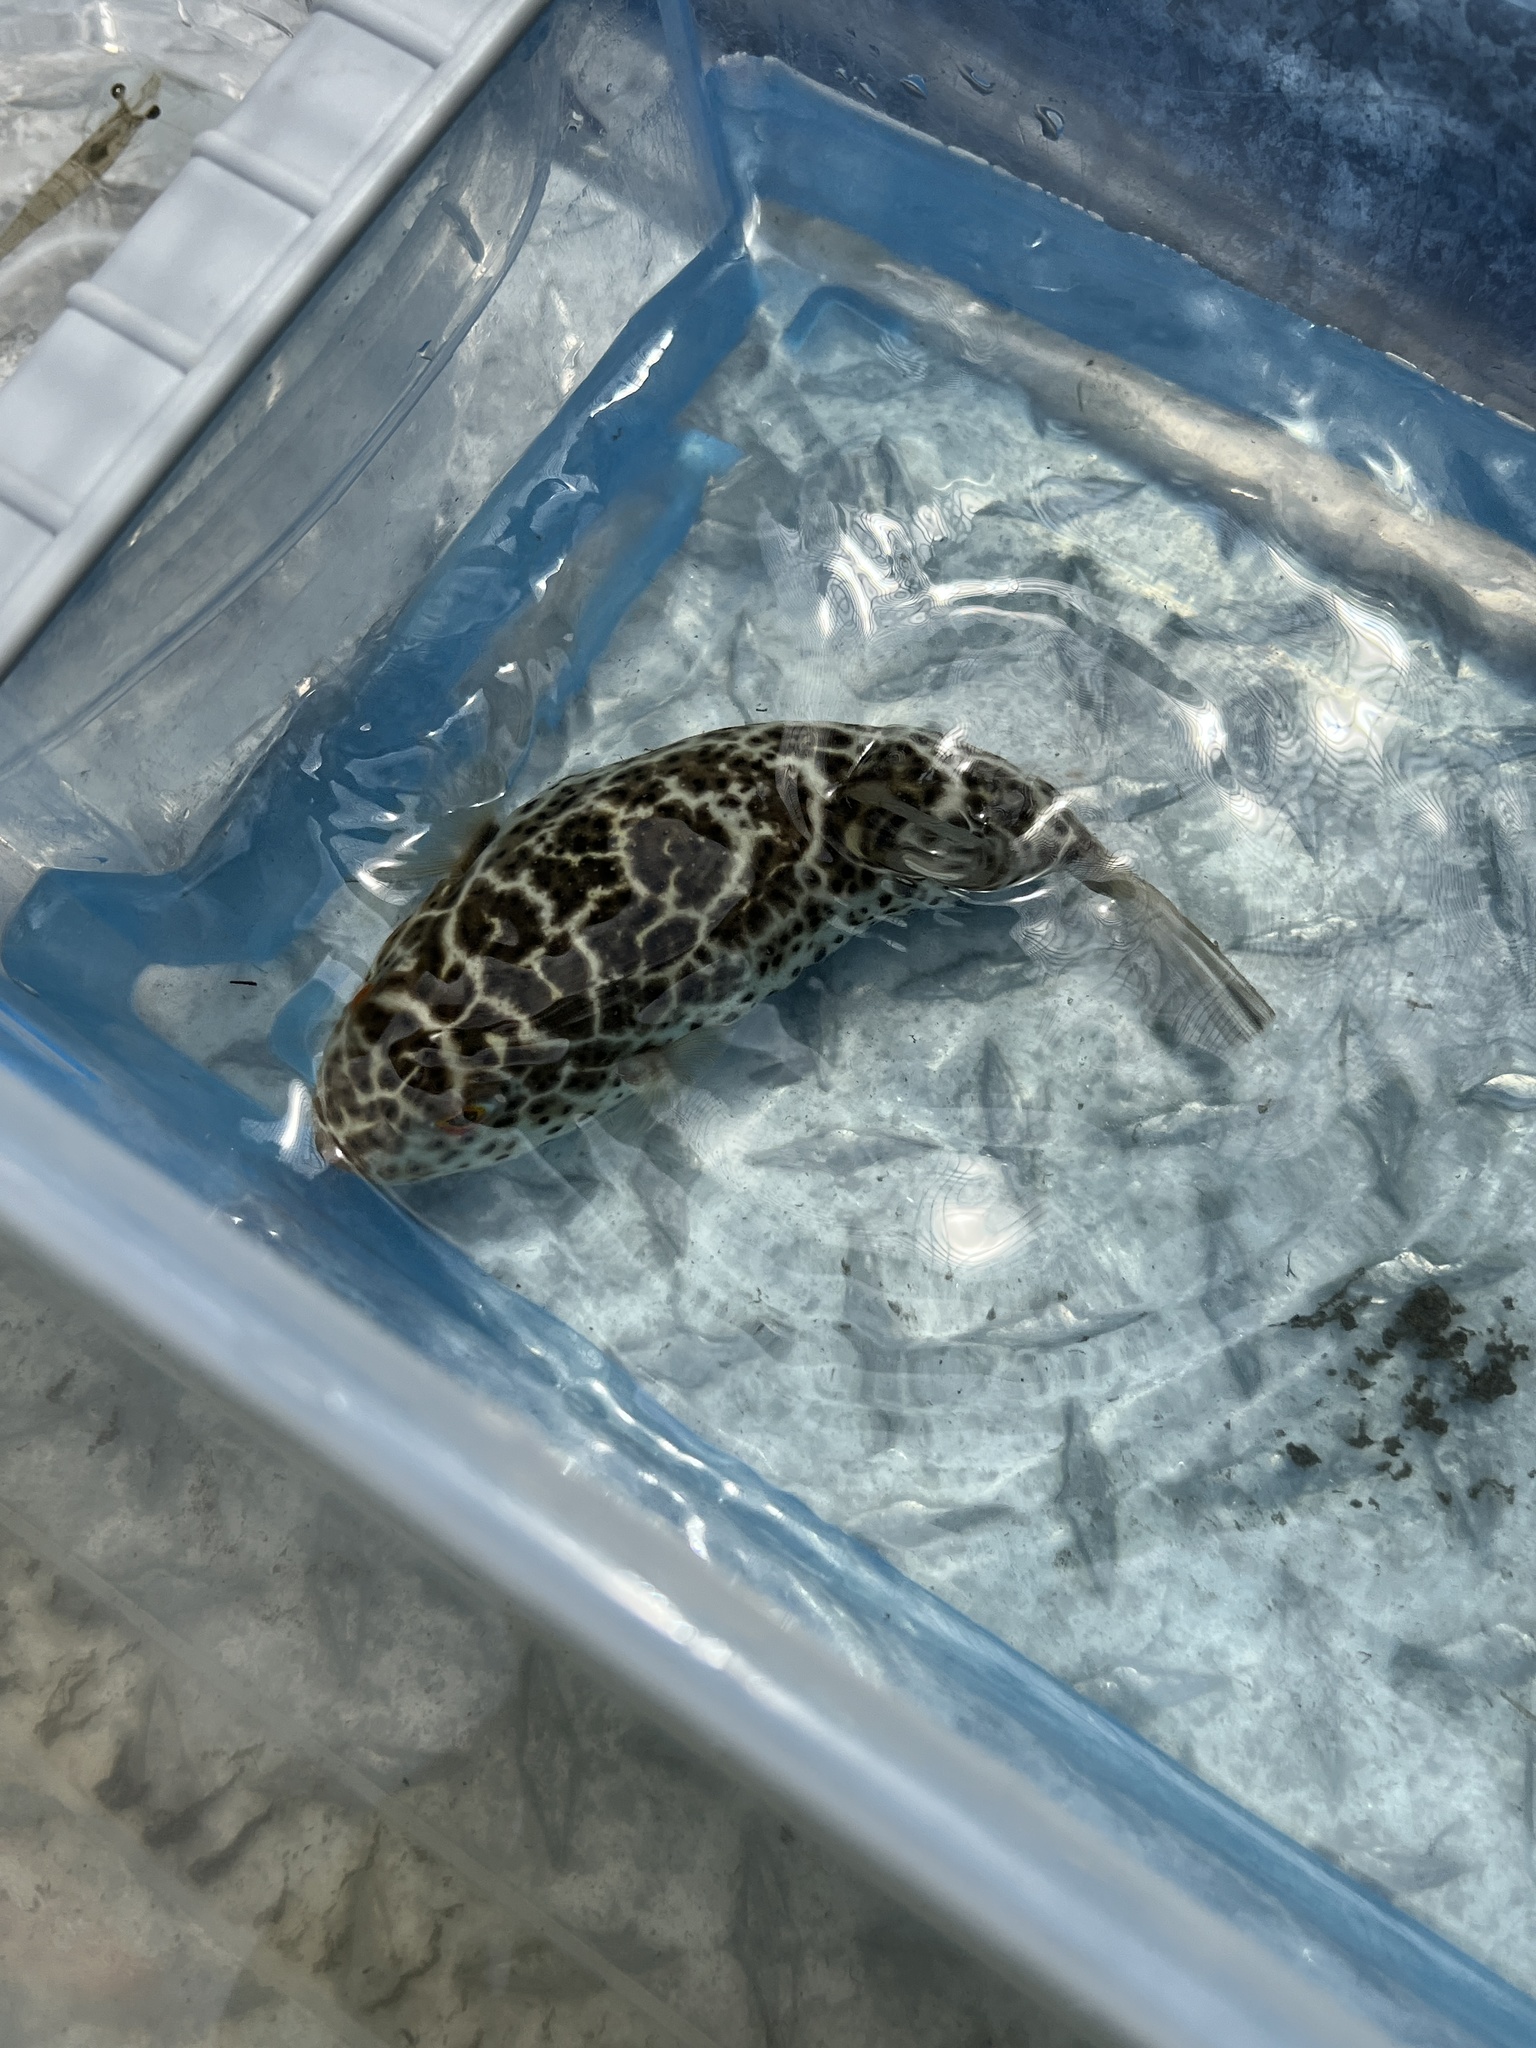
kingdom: Animalia
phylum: Chordata
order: Tetraodontiformes
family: Tetraodontidae
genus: Sphoeroides
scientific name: Sphoeroides testudineus
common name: Checkered puffer
